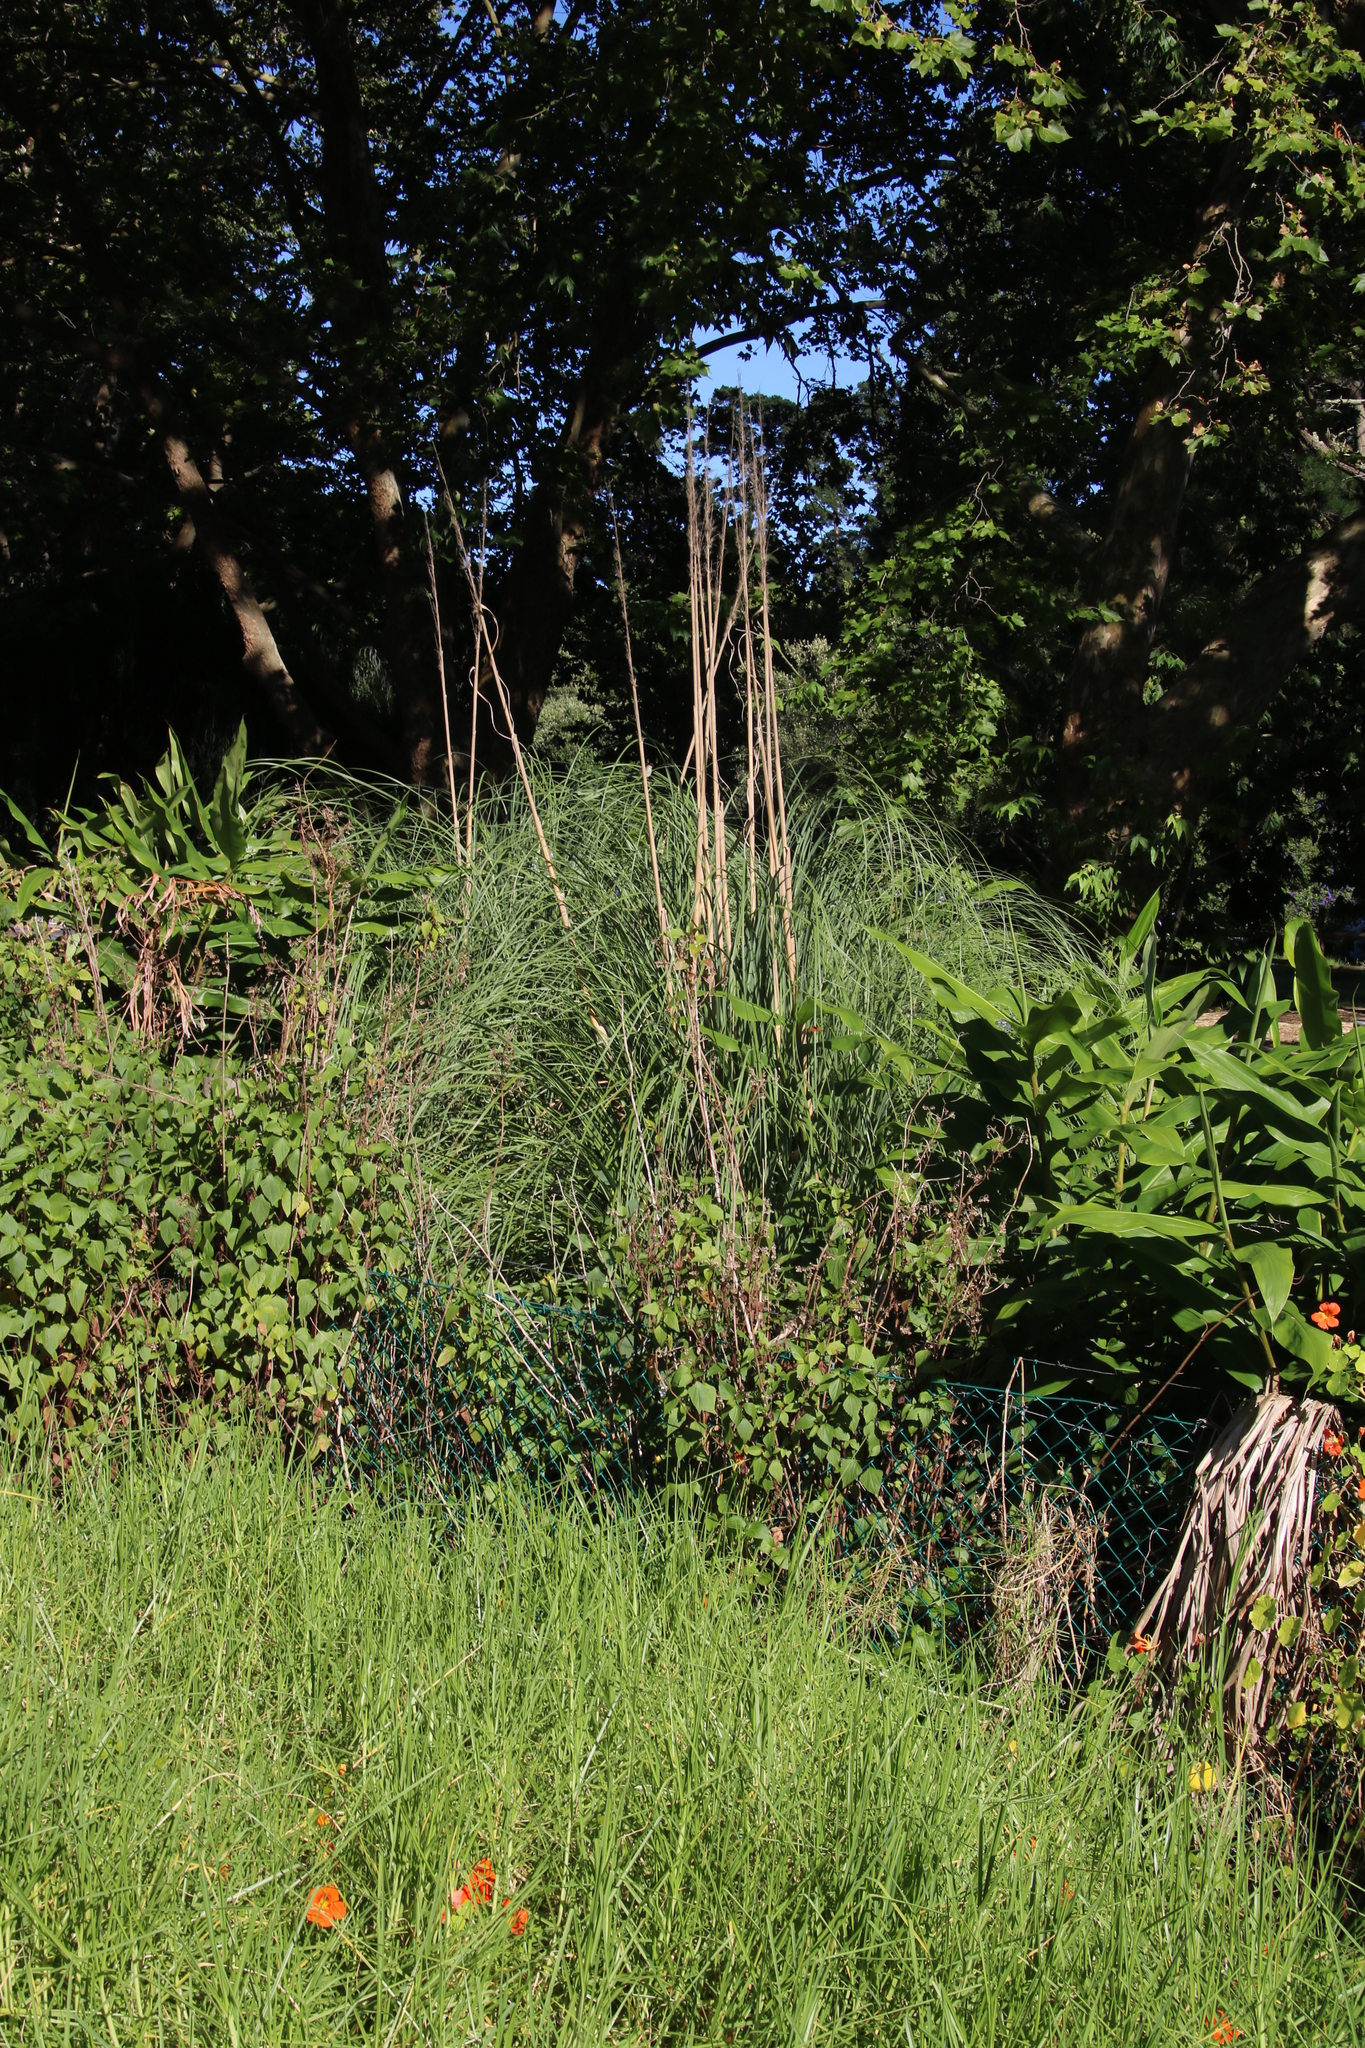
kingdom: Plantae
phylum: Tracheophyta
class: Liliopsida
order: Poales
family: Poaceae
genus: Cortaderia
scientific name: Cortaderia selloana
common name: Uruguayan pampas grass
